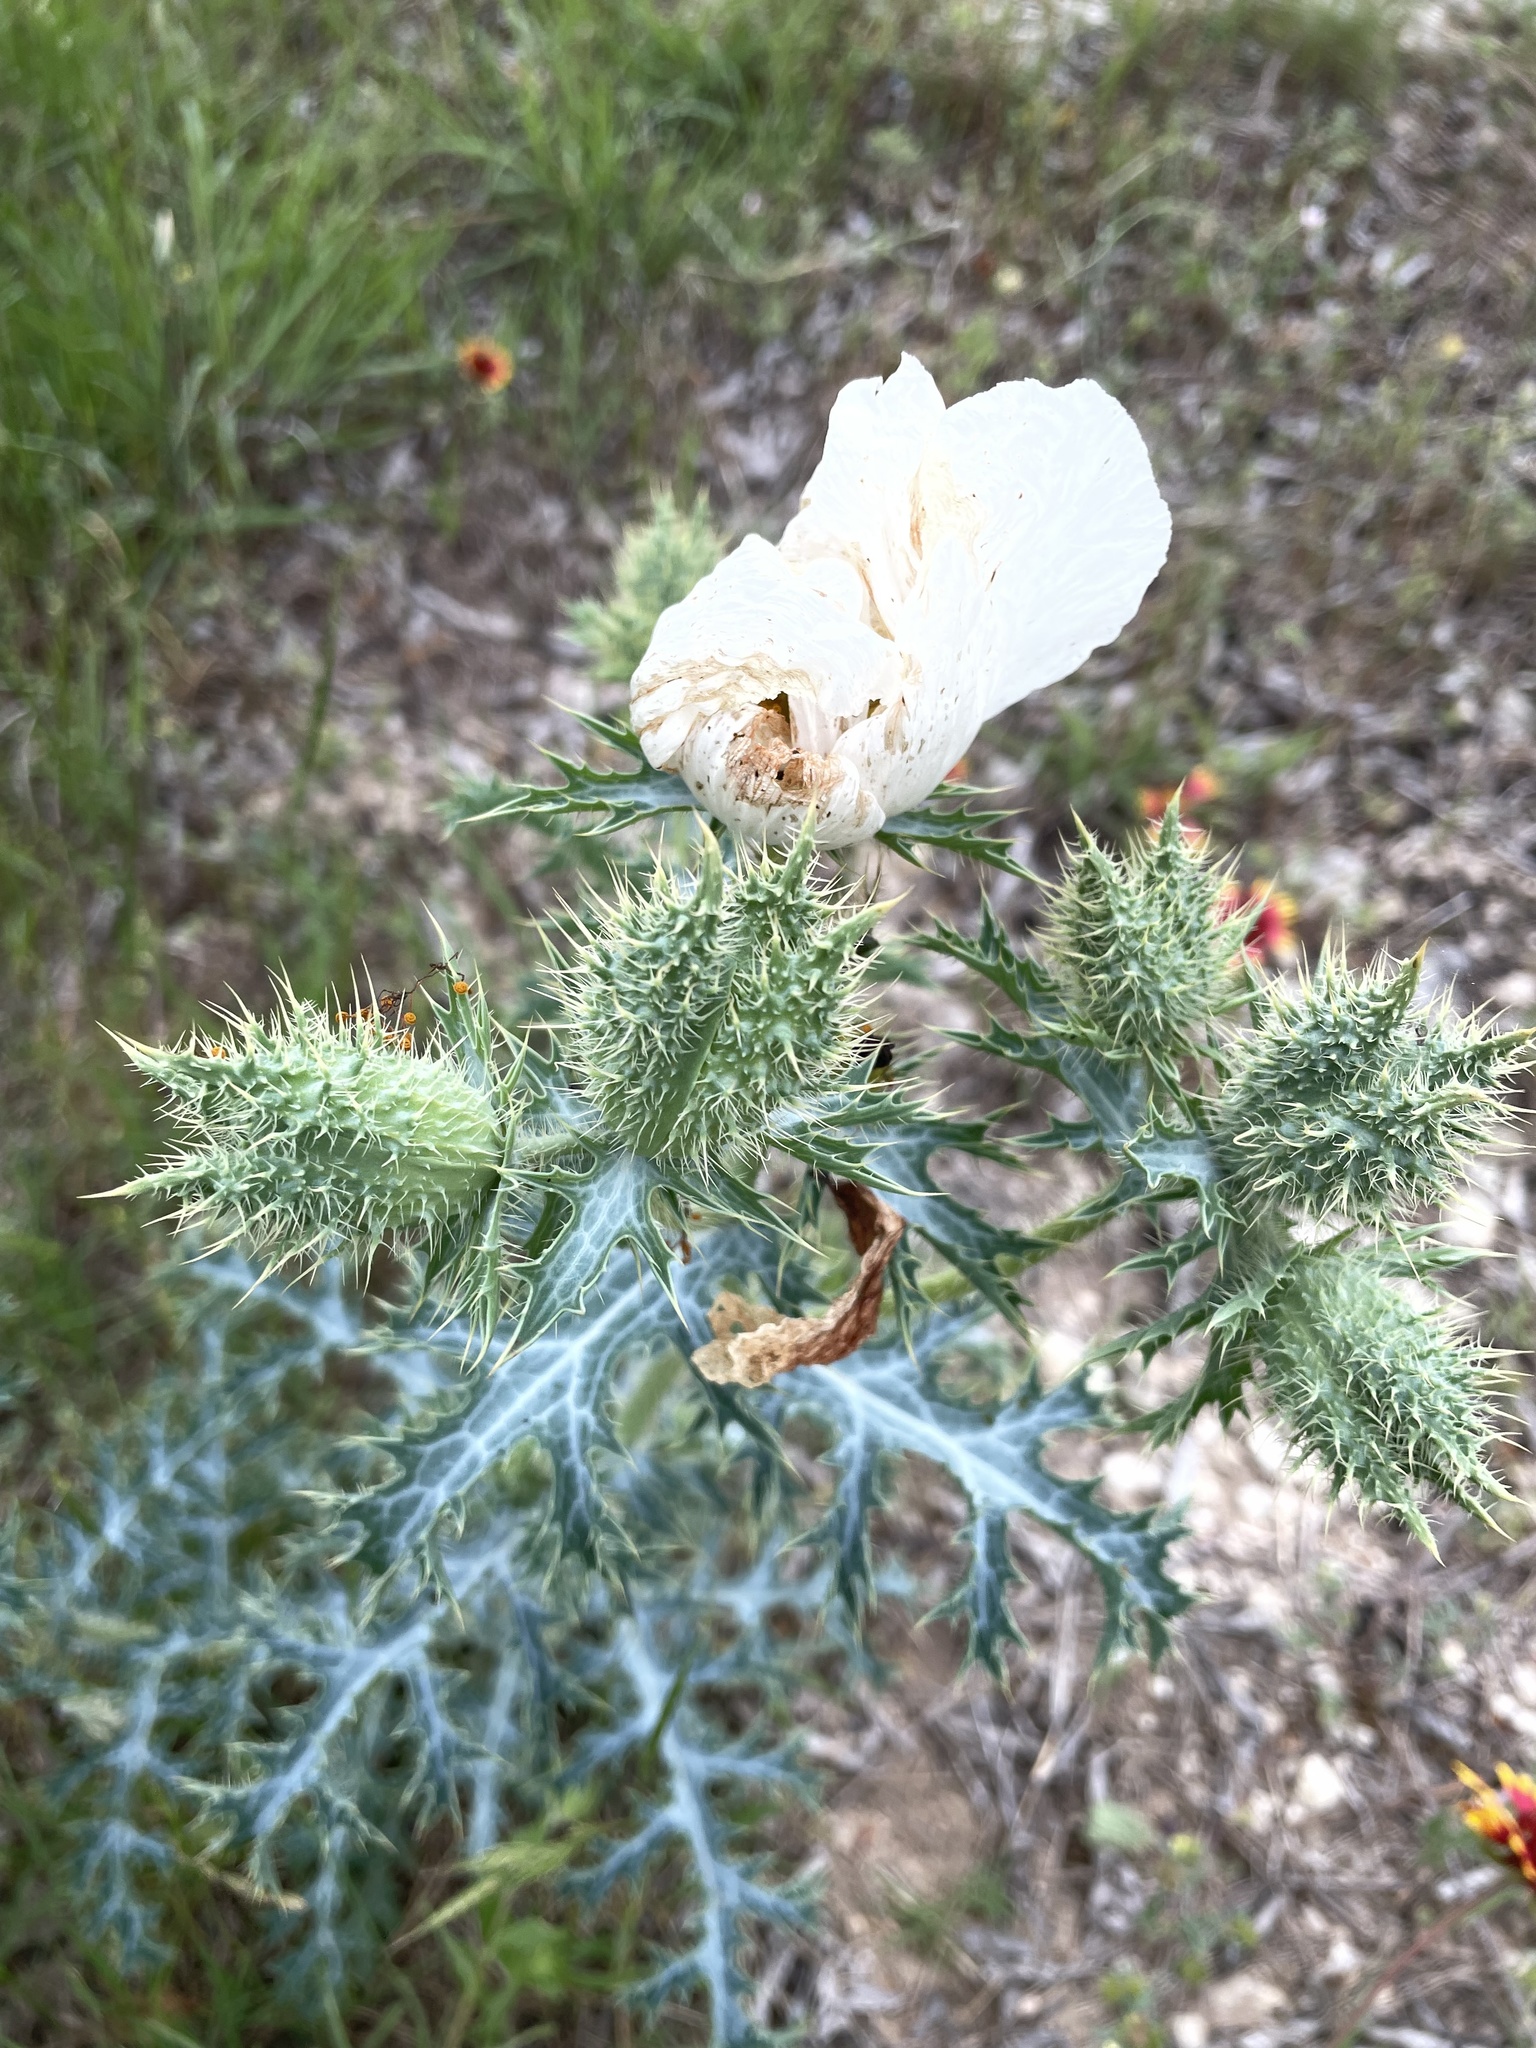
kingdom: Plantae
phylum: Tracheophyta
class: Magnoliopsida
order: Ranunculales
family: Papaveraceae
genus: Argemone
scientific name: Argemone aurantiaca
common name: Texas prickly-poppy
